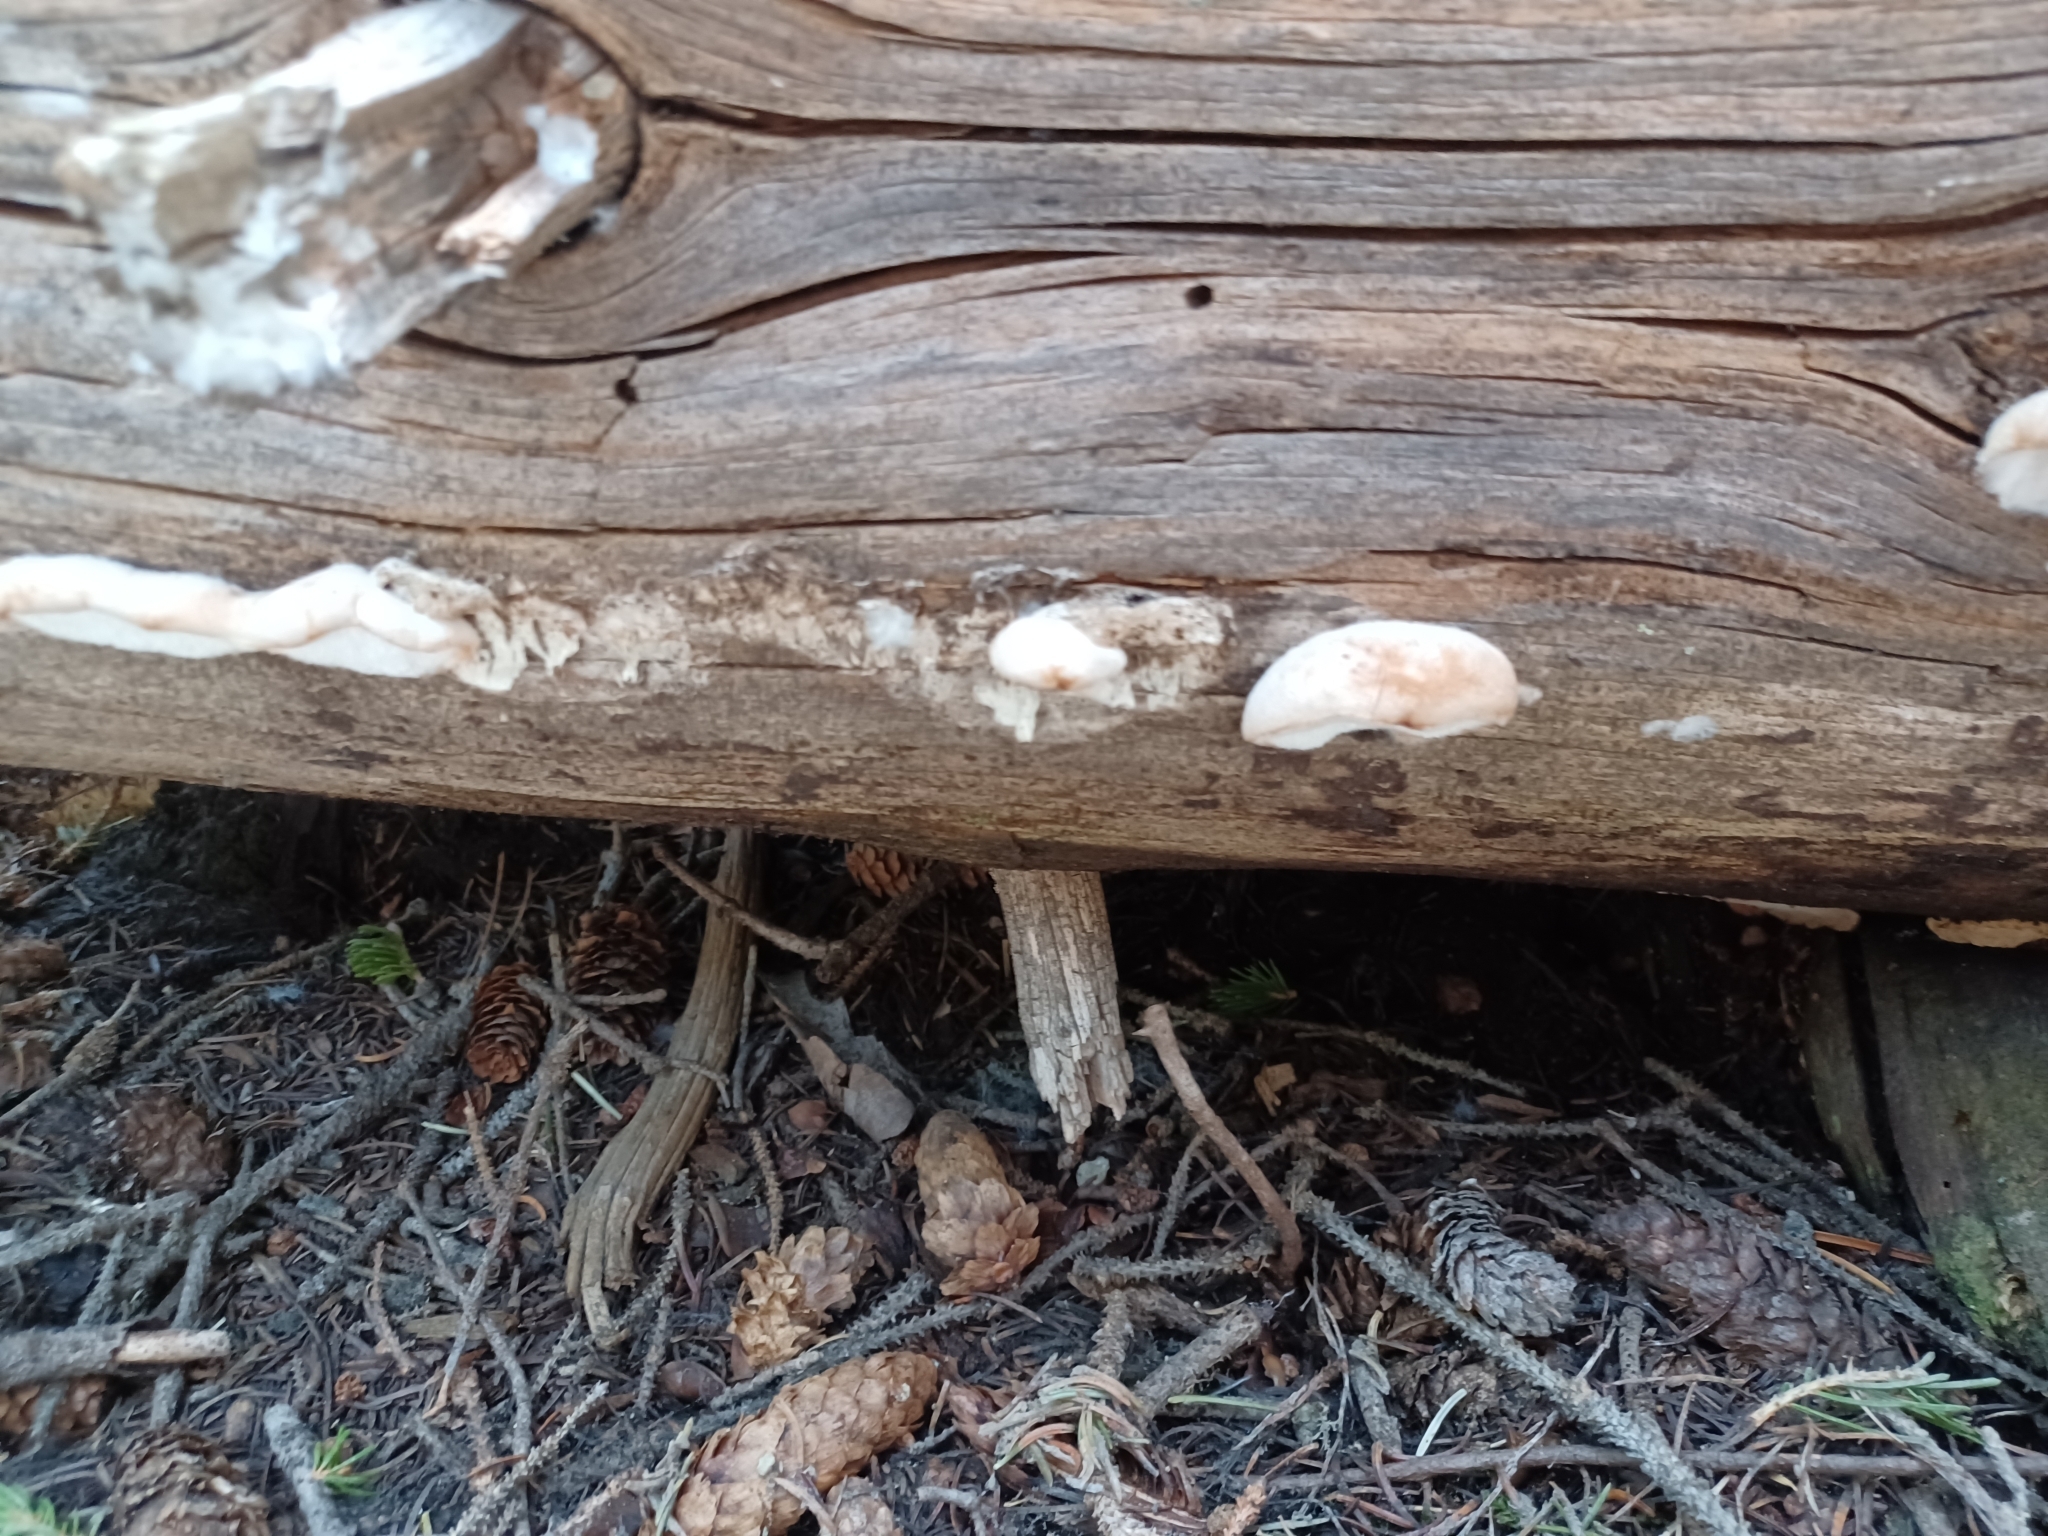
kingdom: Fungi
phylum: Basidiomycota
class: Agaricomycetes
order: Polyporales
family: Incrustoporiaceae
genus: Tyromyces
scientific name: Tyromyces leucospongius
